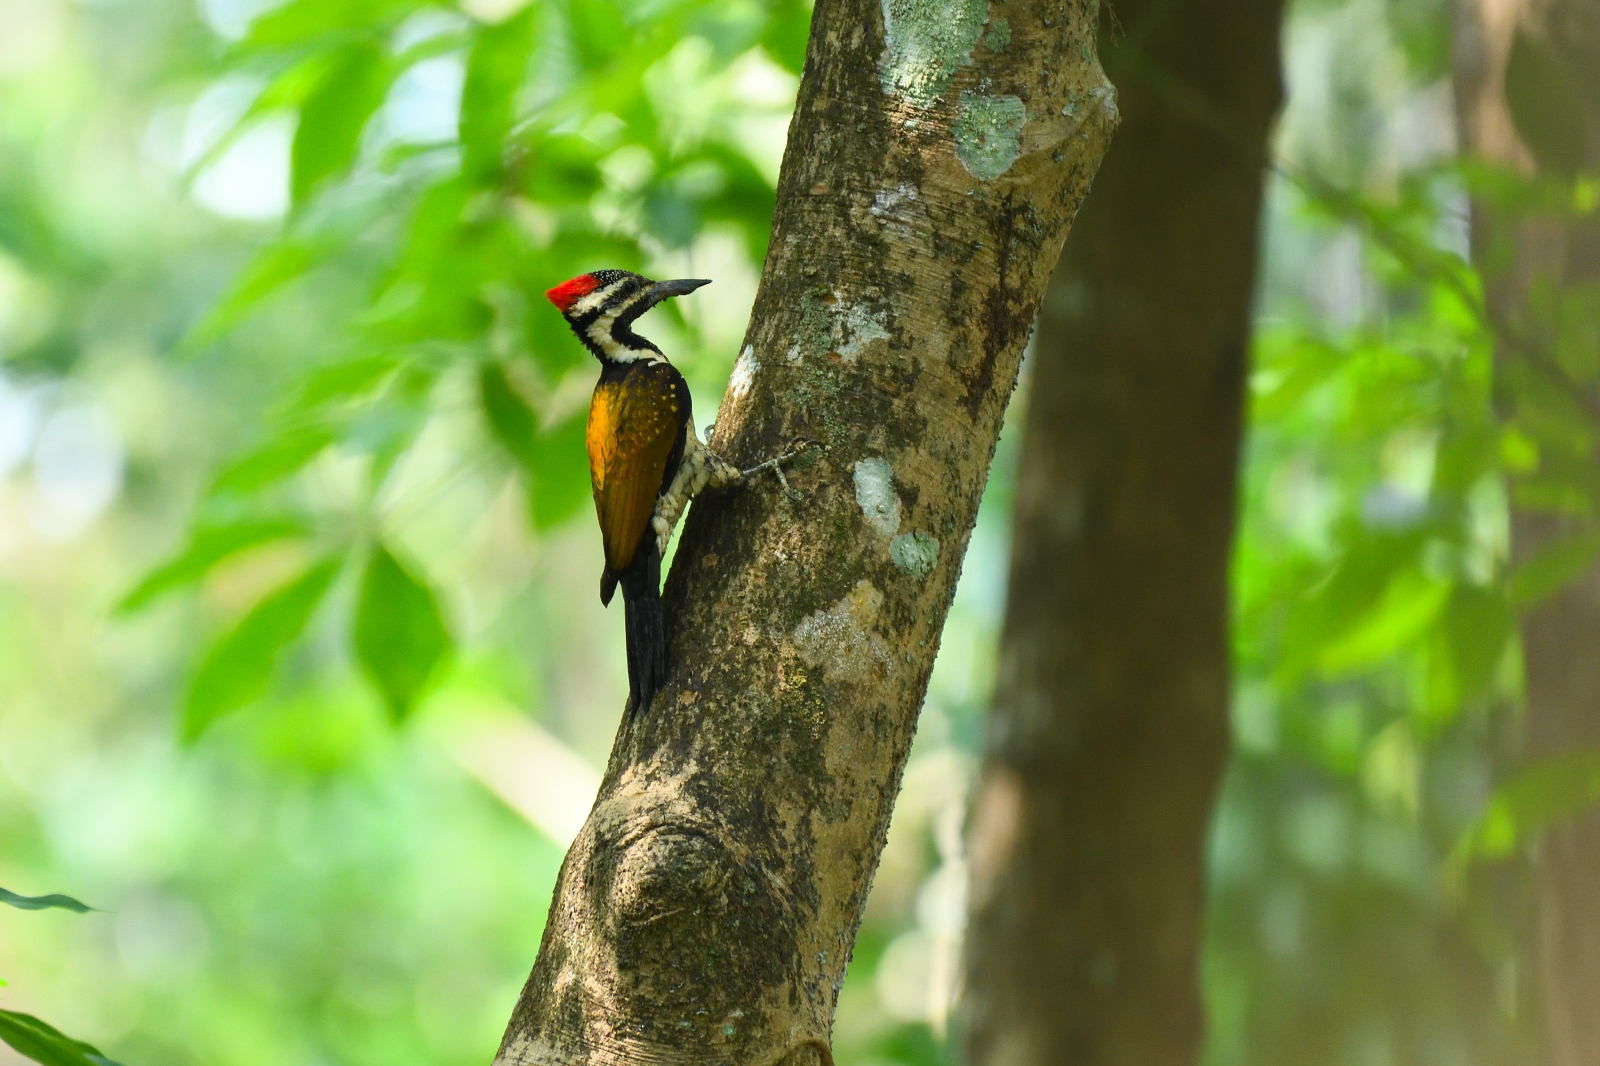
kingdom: Animalia
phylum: Chordata
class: Aves
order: Piciformes
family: Picidae
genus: Dinopium
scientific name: Dinopium benghalense
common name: Black-rumped flameback
